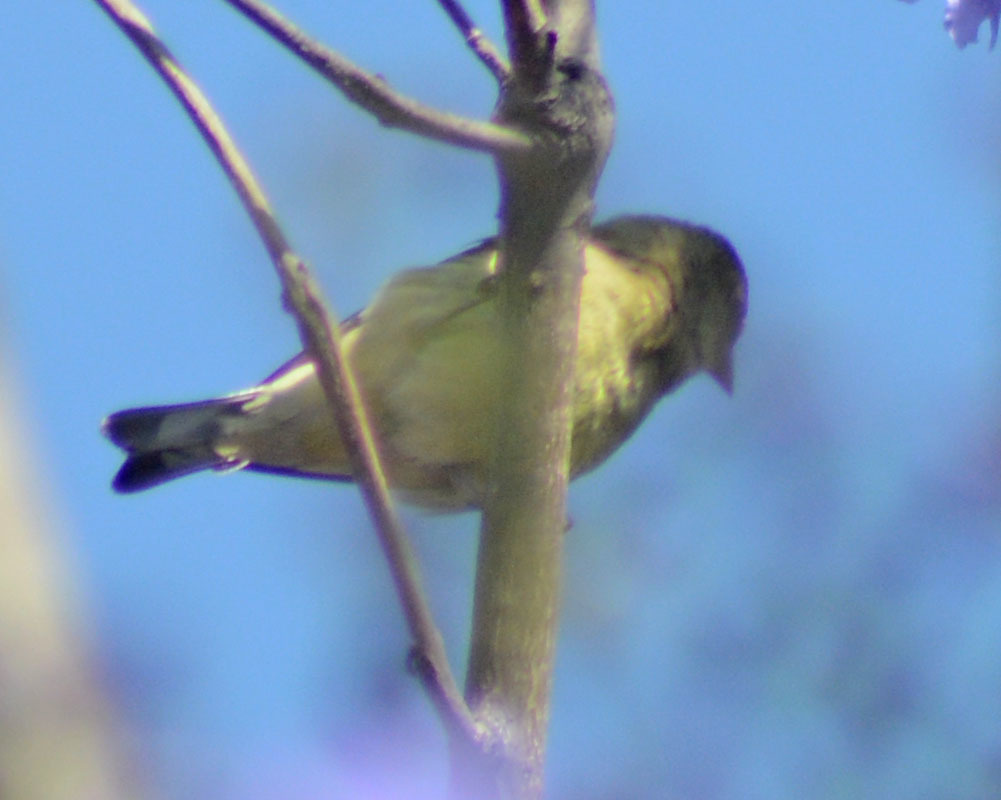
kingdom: Animalia
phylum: Chordata
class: Aves
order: Passeriformes
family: Fringillidae
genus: Spinus
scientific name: Spinus psaltria
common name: Lesser goldfinch
